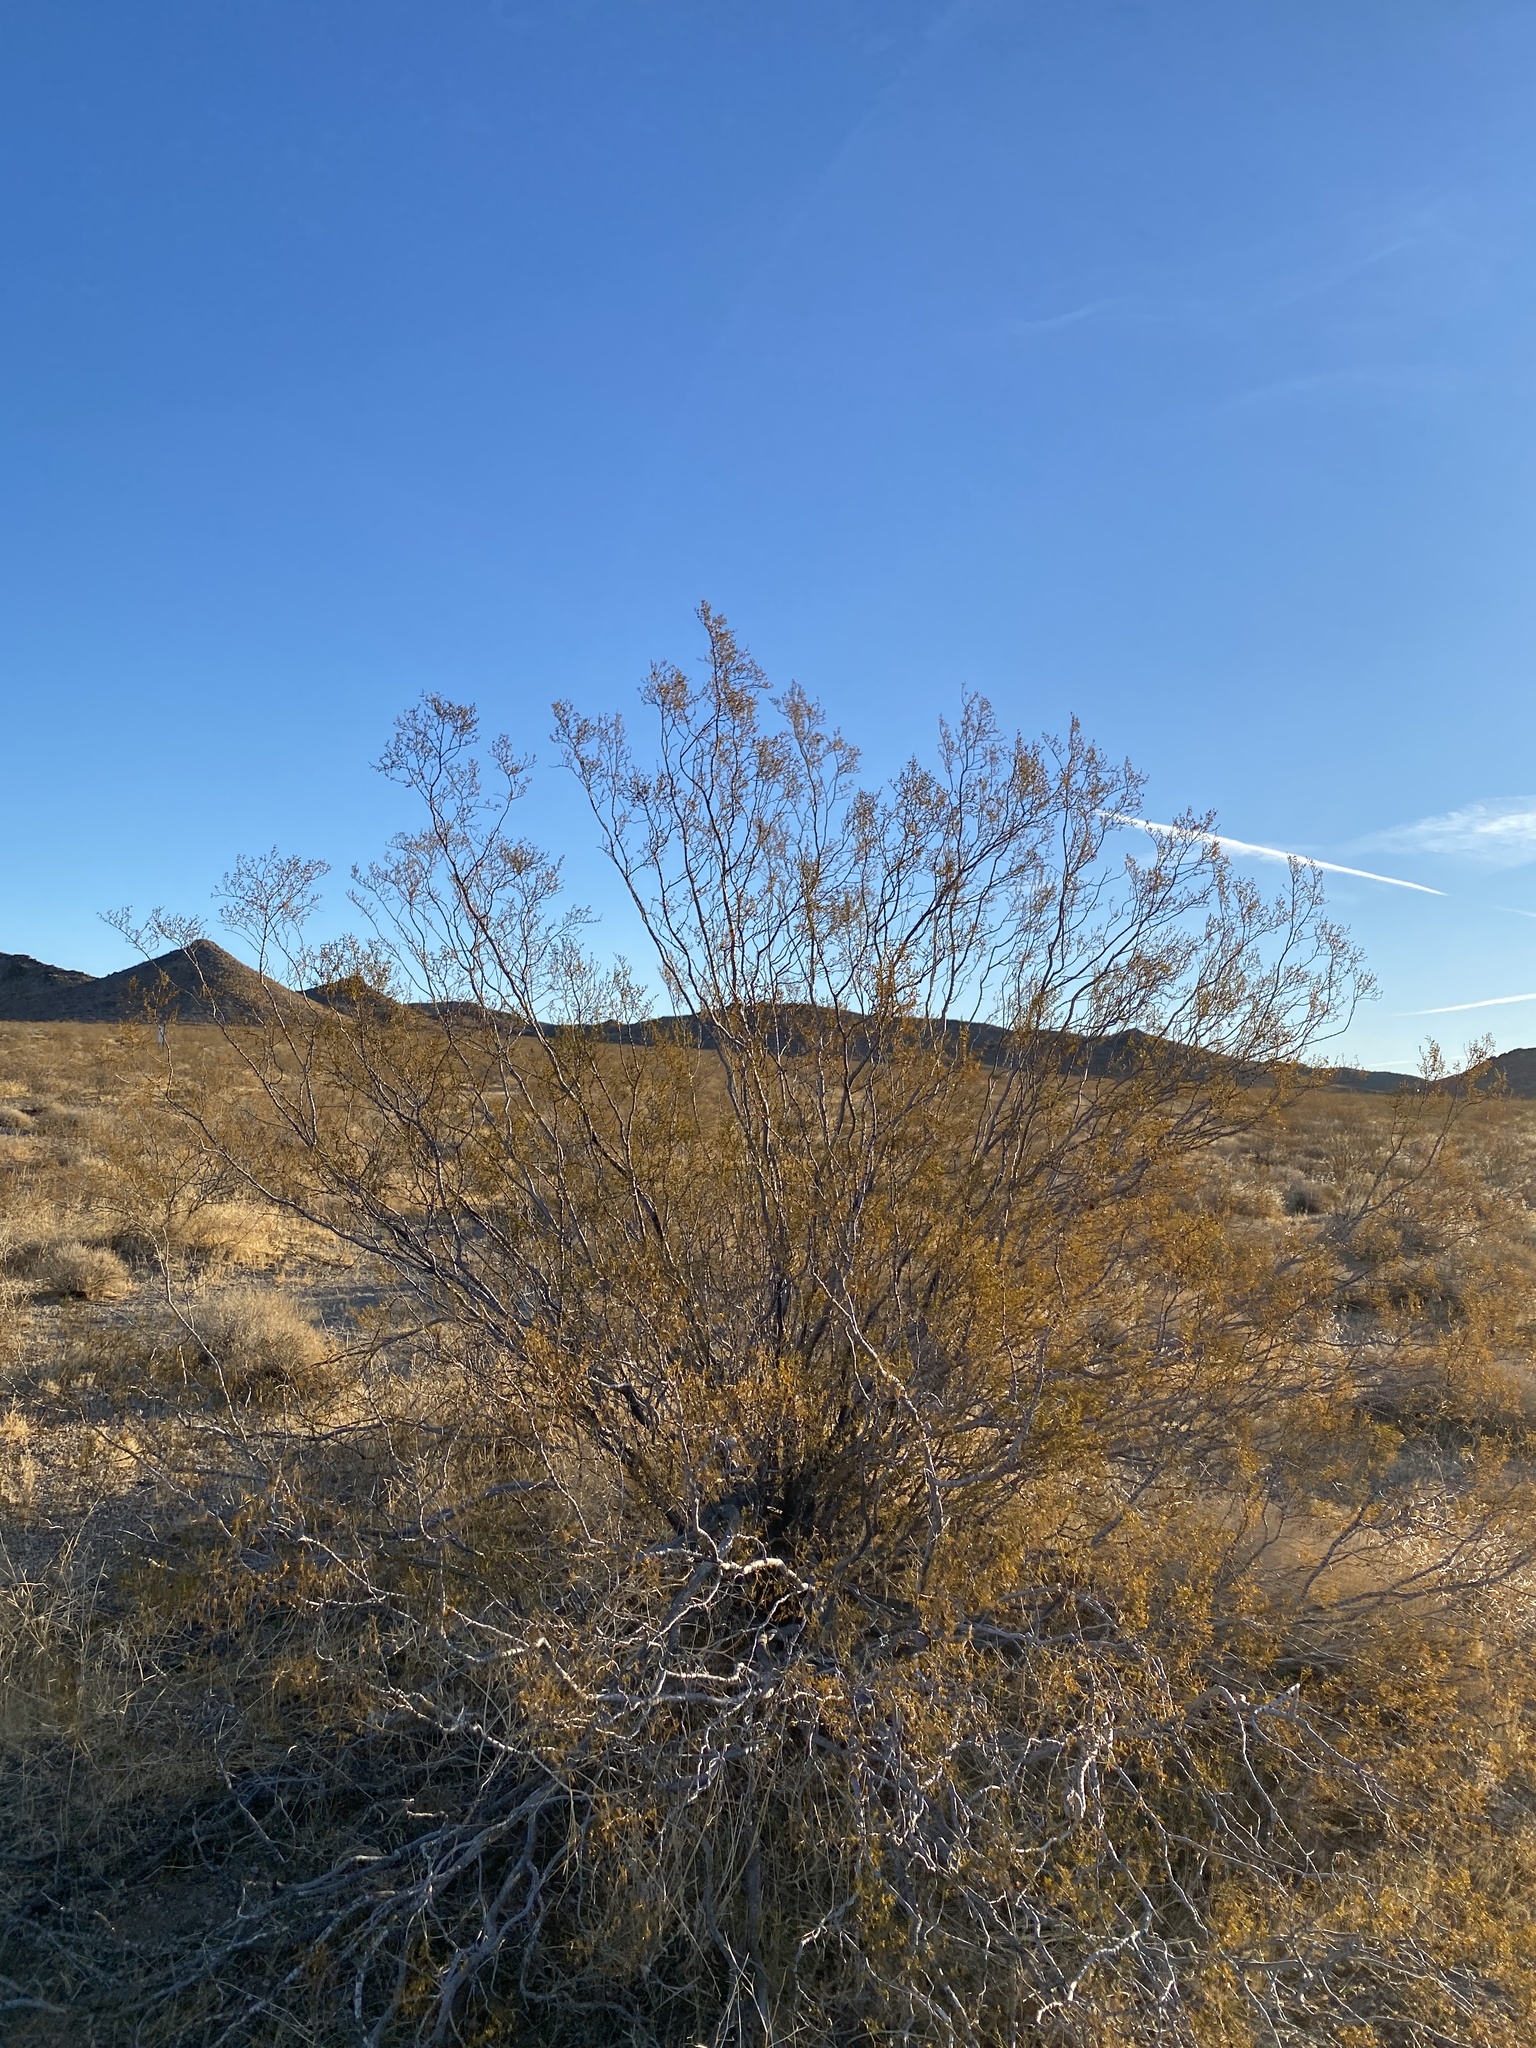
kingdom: Plantae
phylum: Tracheophyta
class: Magnoliopsida
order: Zygophyllales
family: Zygophyllaceae
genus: Larrea
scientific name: Larrea tridentata
